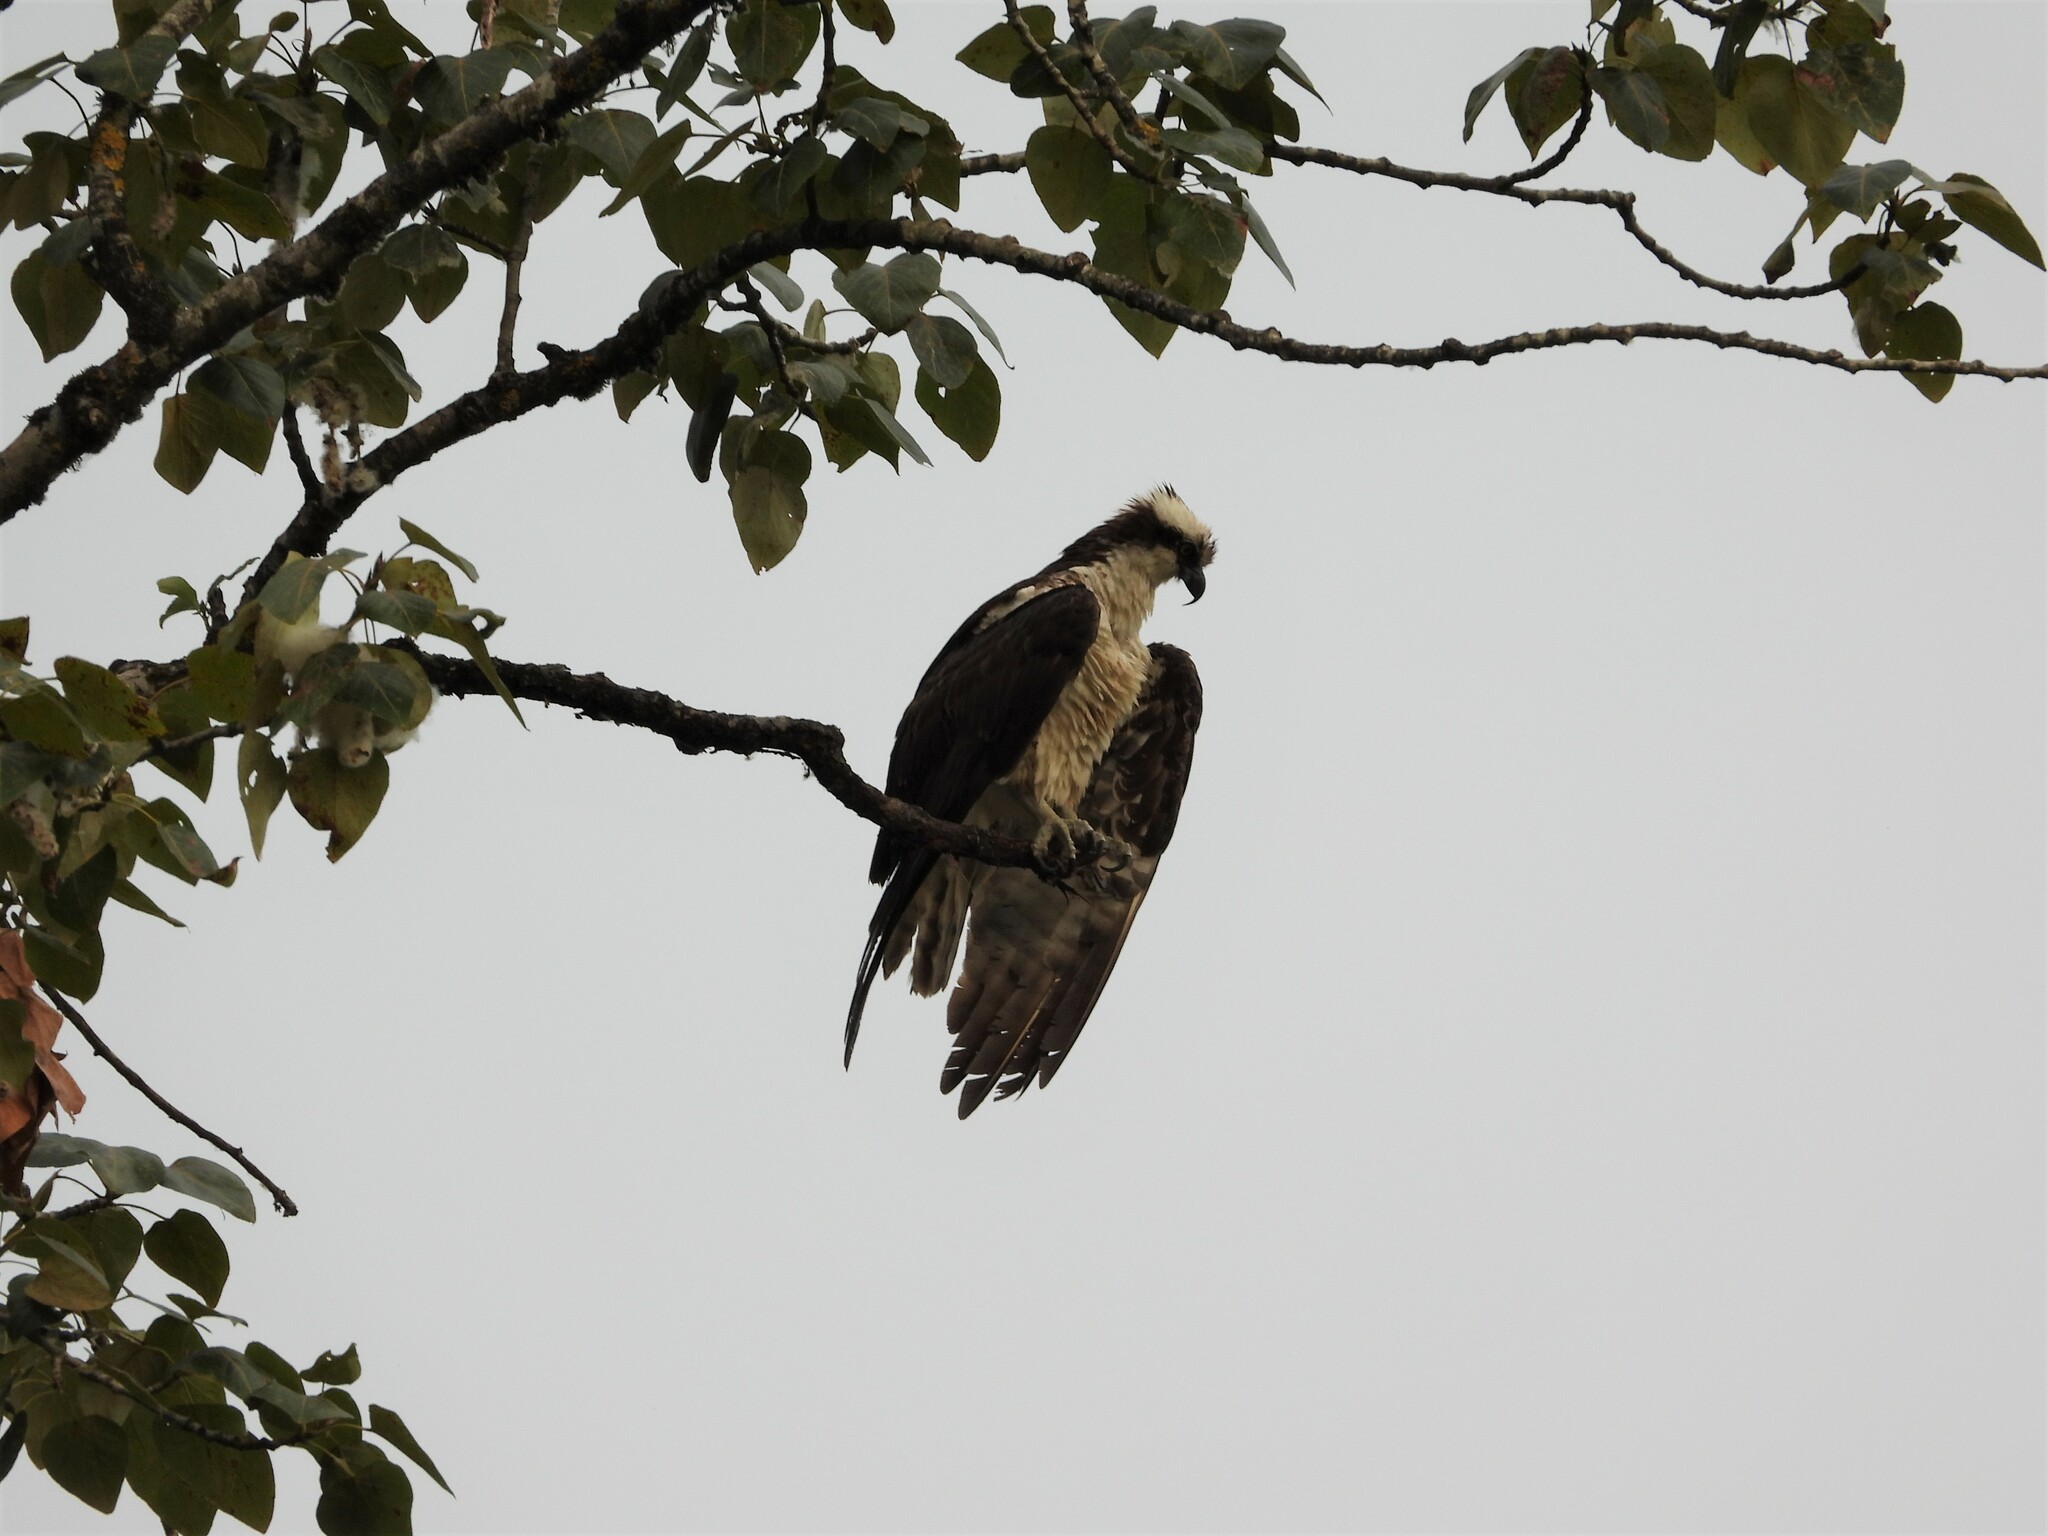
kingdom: Animalia
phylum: Chordata
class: Aves
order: Accipitriformes
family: Pandionidae
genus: Pandion
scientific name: Pandion haliaetus
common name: Osprey
